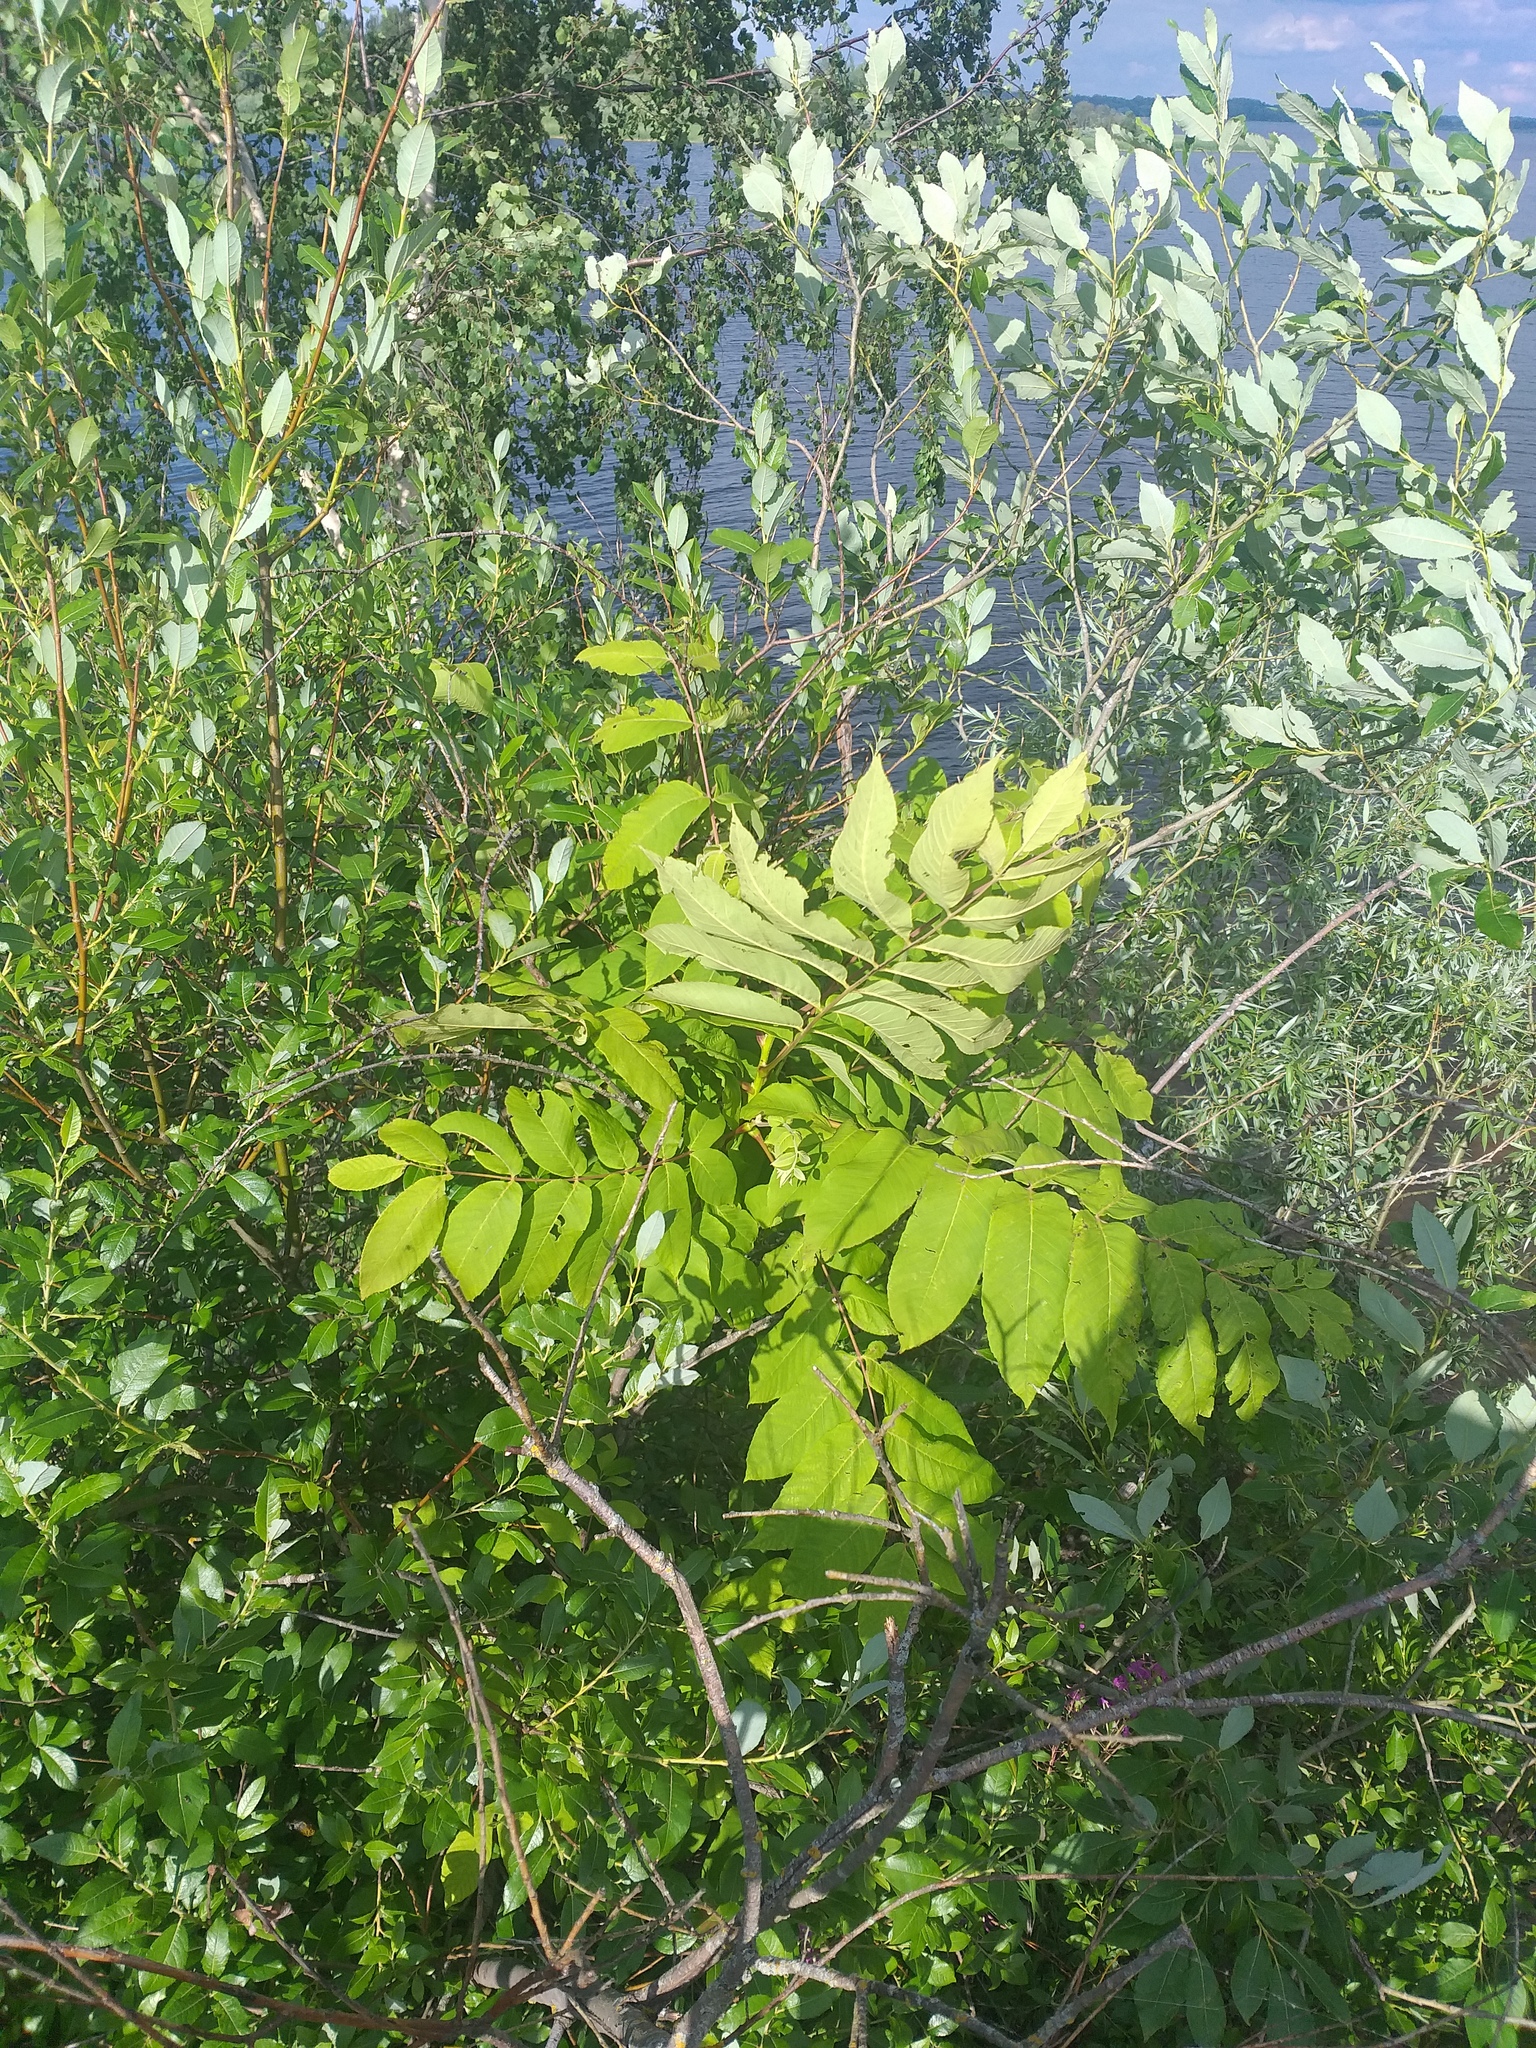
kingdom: Plantae
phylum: Tracheophyta
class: Magnoliopsida
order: Fagales
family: Juglandaceae
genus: Juglans
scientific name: Juglans mandshurica
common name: Manchurian walnut
